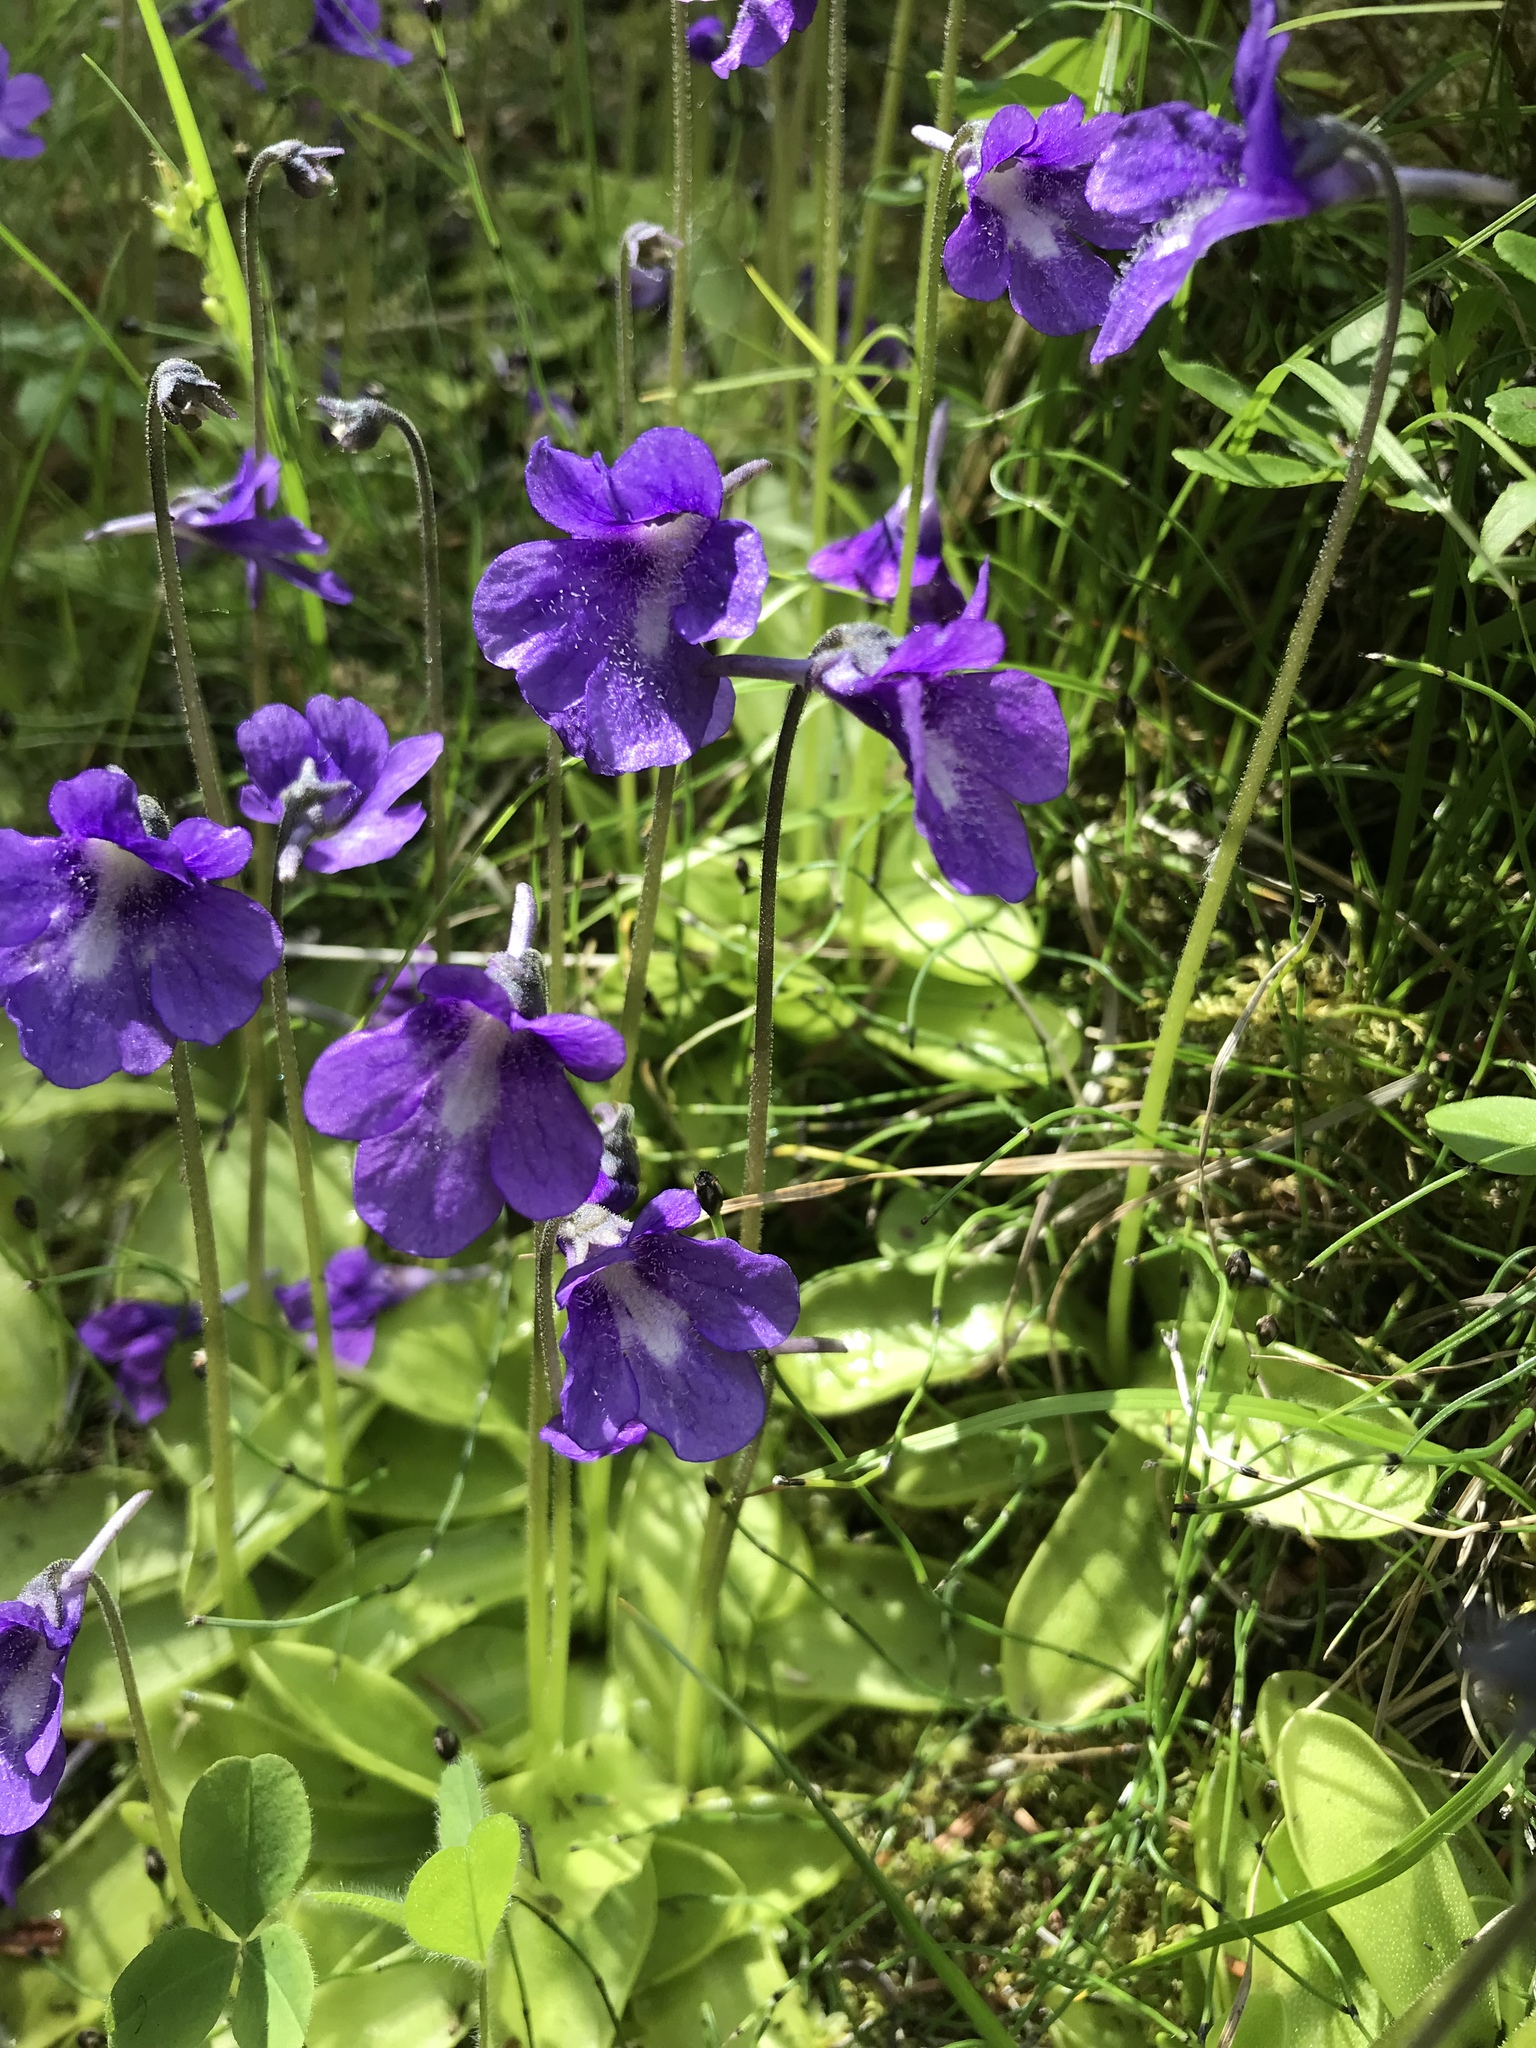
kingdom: Plantae
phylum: Tracheophyta
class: Magnoliopsida
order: Lamiales
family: Lentibulariaceae
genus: Pinguicula
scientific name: Pinguicula vulgaris
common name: Common butterwort
